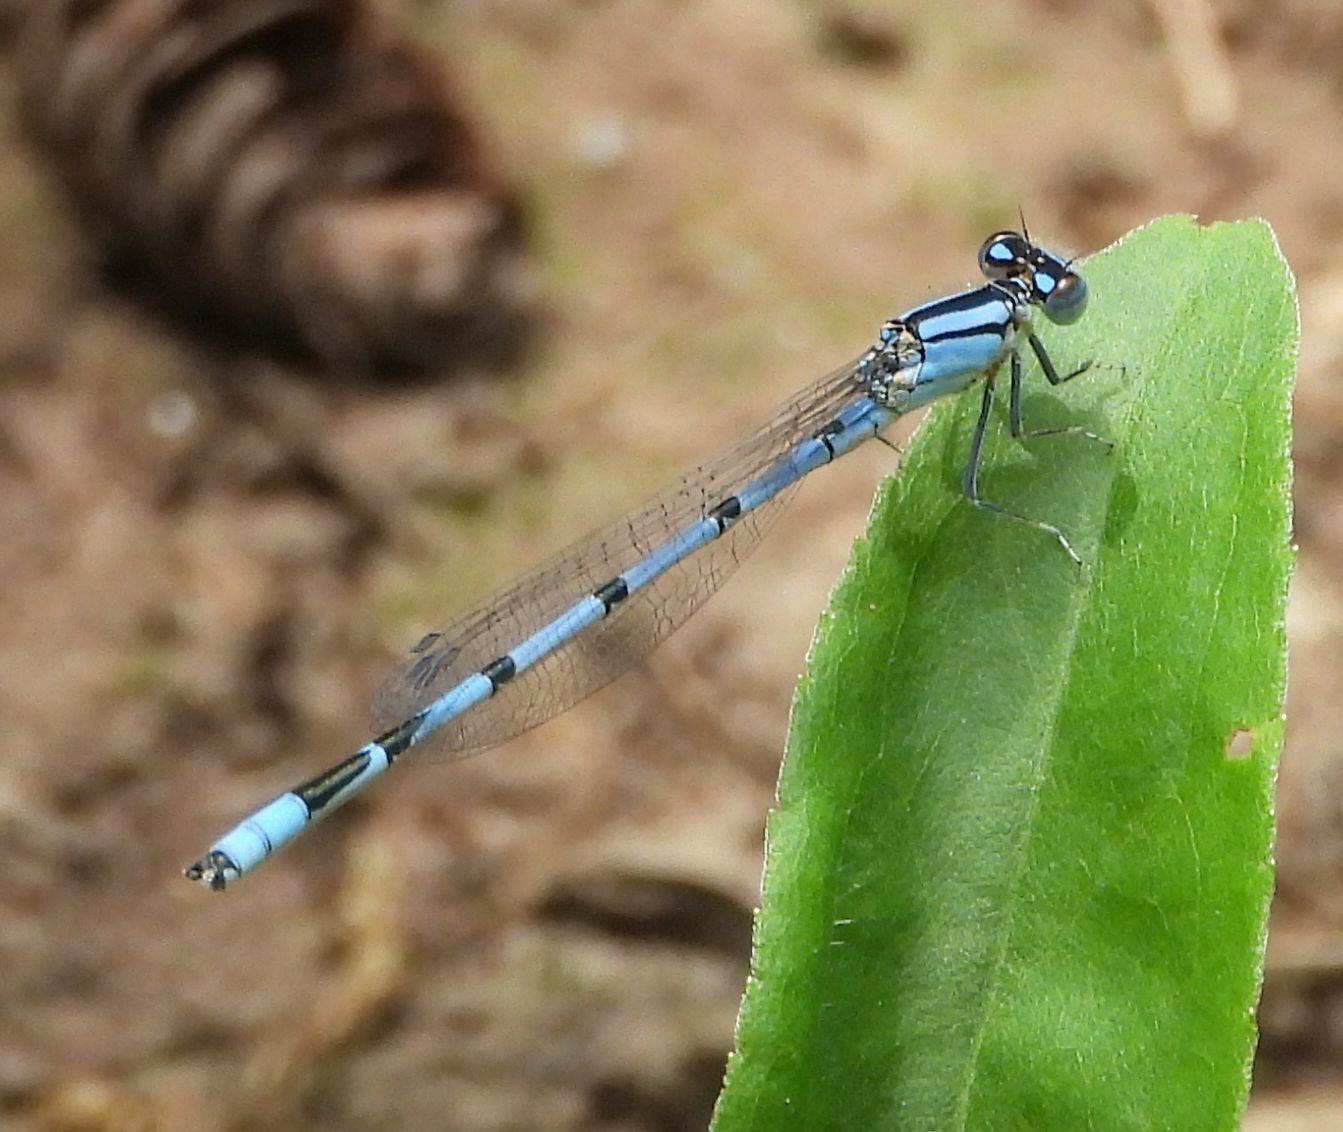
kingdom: Animalia
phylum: Arthropoda
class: Insecta
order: Odonata
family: Coenagrionidae
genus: Enallagma
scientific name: Enallagma civile
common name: Damselfly
